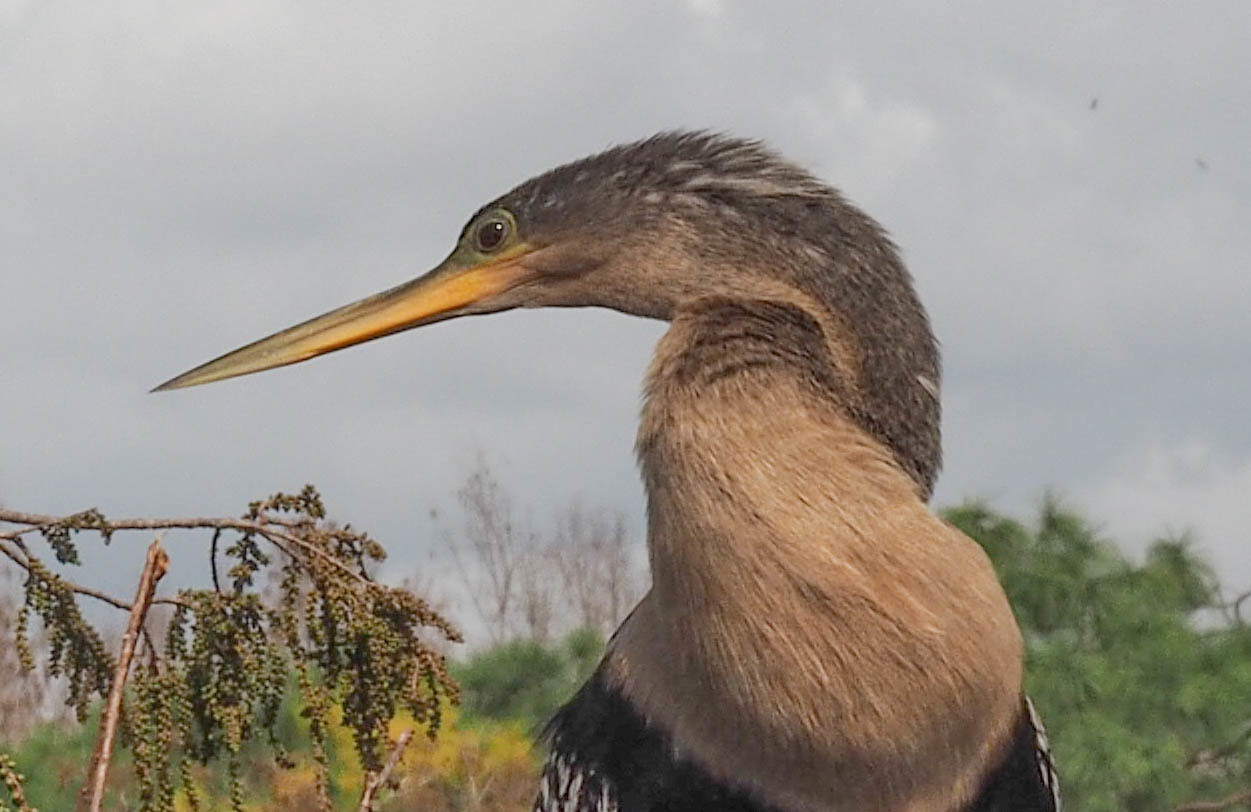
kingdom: Animalia
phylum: Chordata
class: Aves
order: Suliformes
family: Anhingidae
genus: Anhinga
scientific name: Anhinga anhinga
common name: Anhinga
